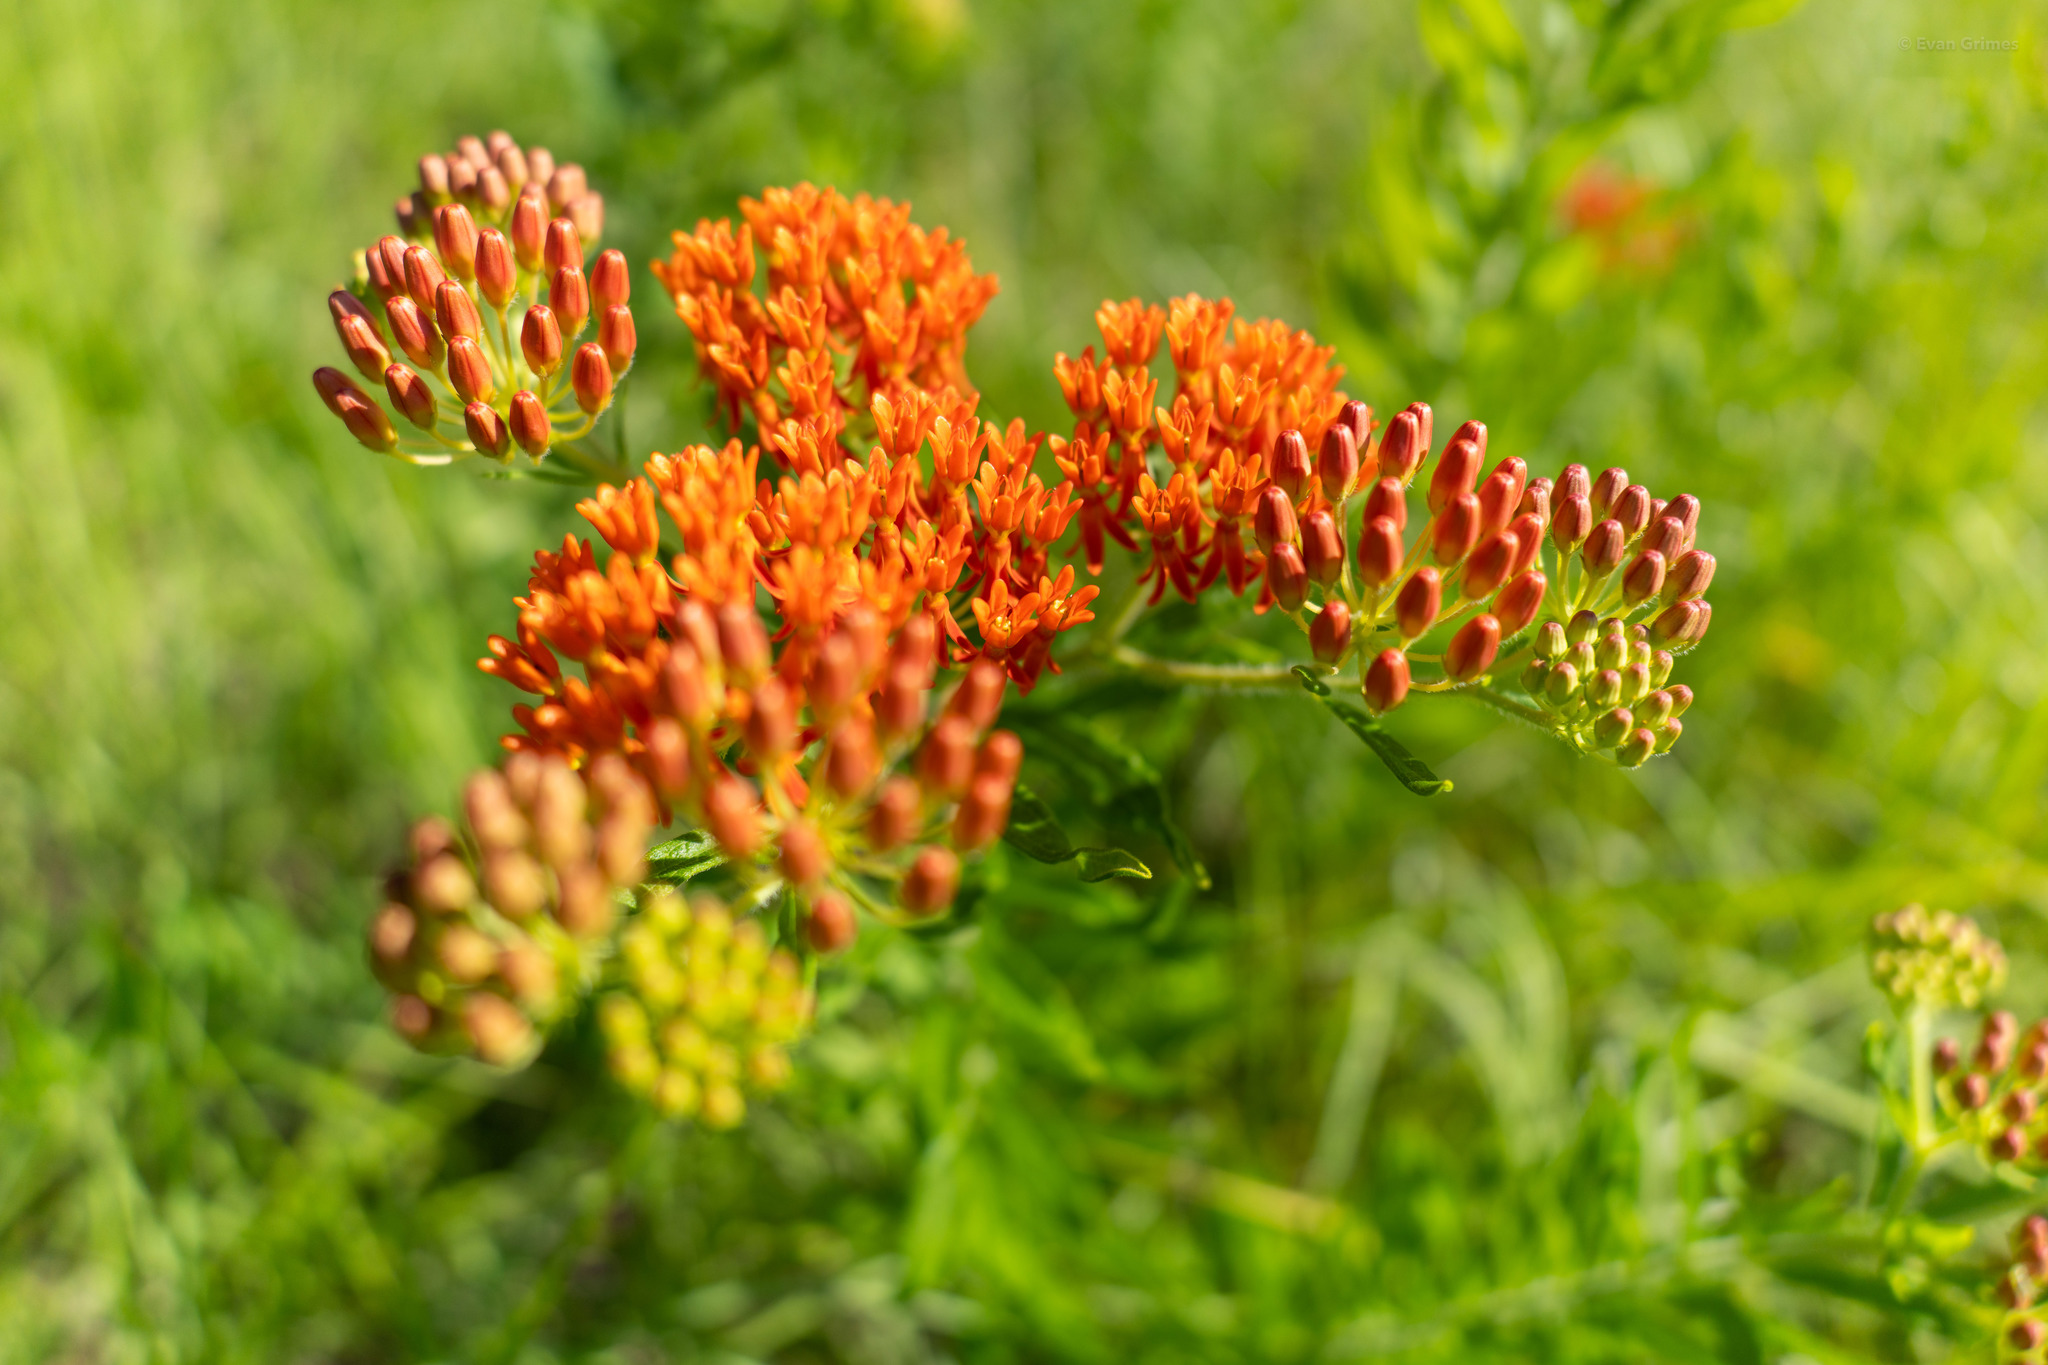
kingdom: Plantae
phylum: Tracheophyta
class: Magnoliopsida
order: Gentianales
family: Apocynaceae
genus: Asclepias
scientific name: Asclepias tuberosa
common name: Butterfly milkweed
